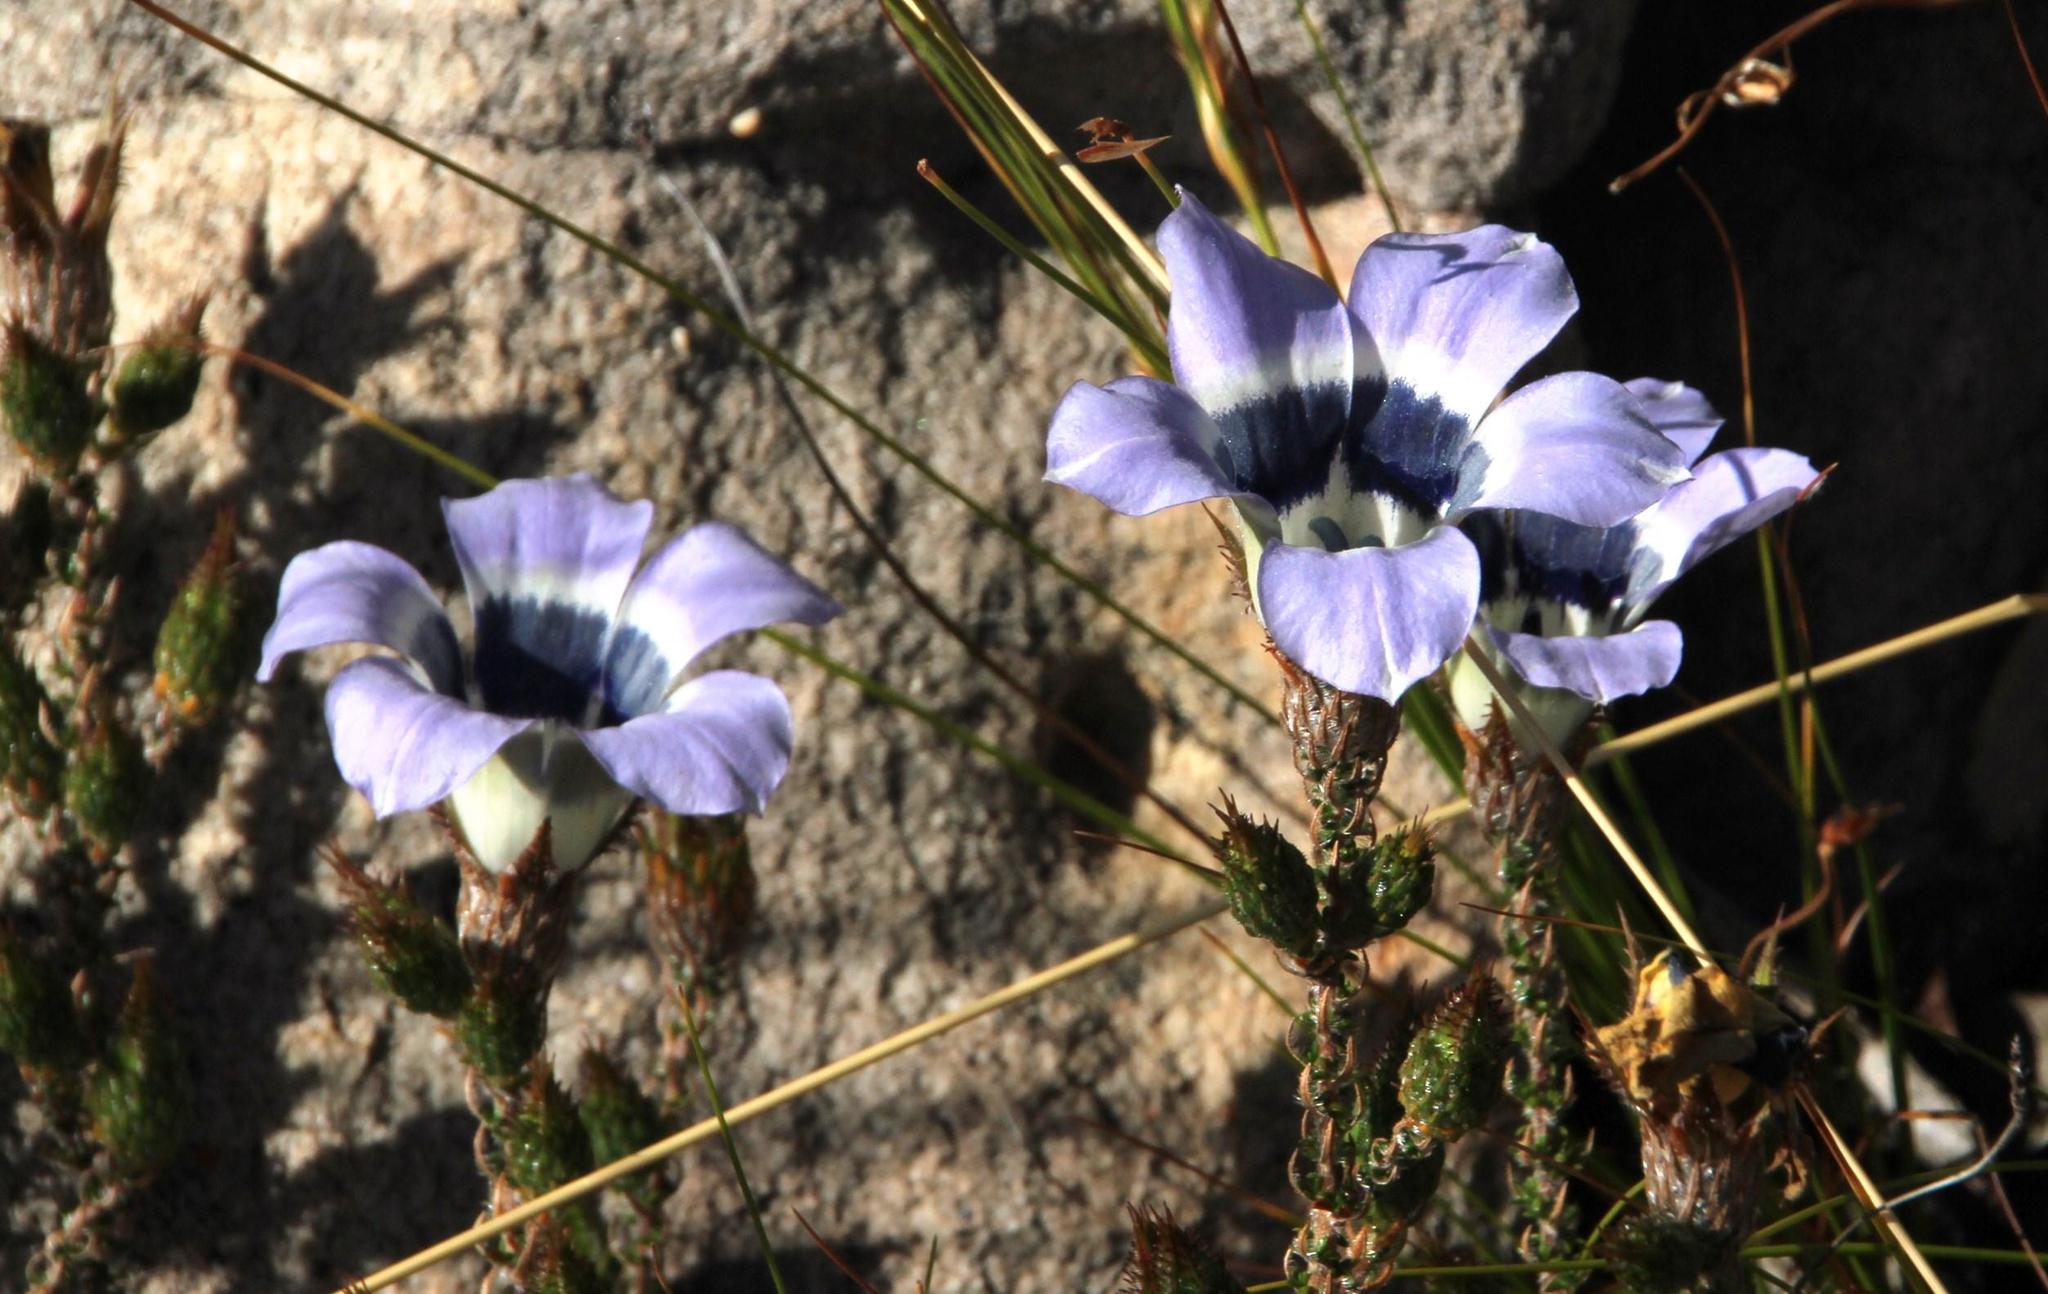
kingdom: Plantae
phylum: Tracheophyta
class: Magnoliopsida
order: Asterales
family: Campanulaceae
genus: Roella
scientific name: Roella ciliata
